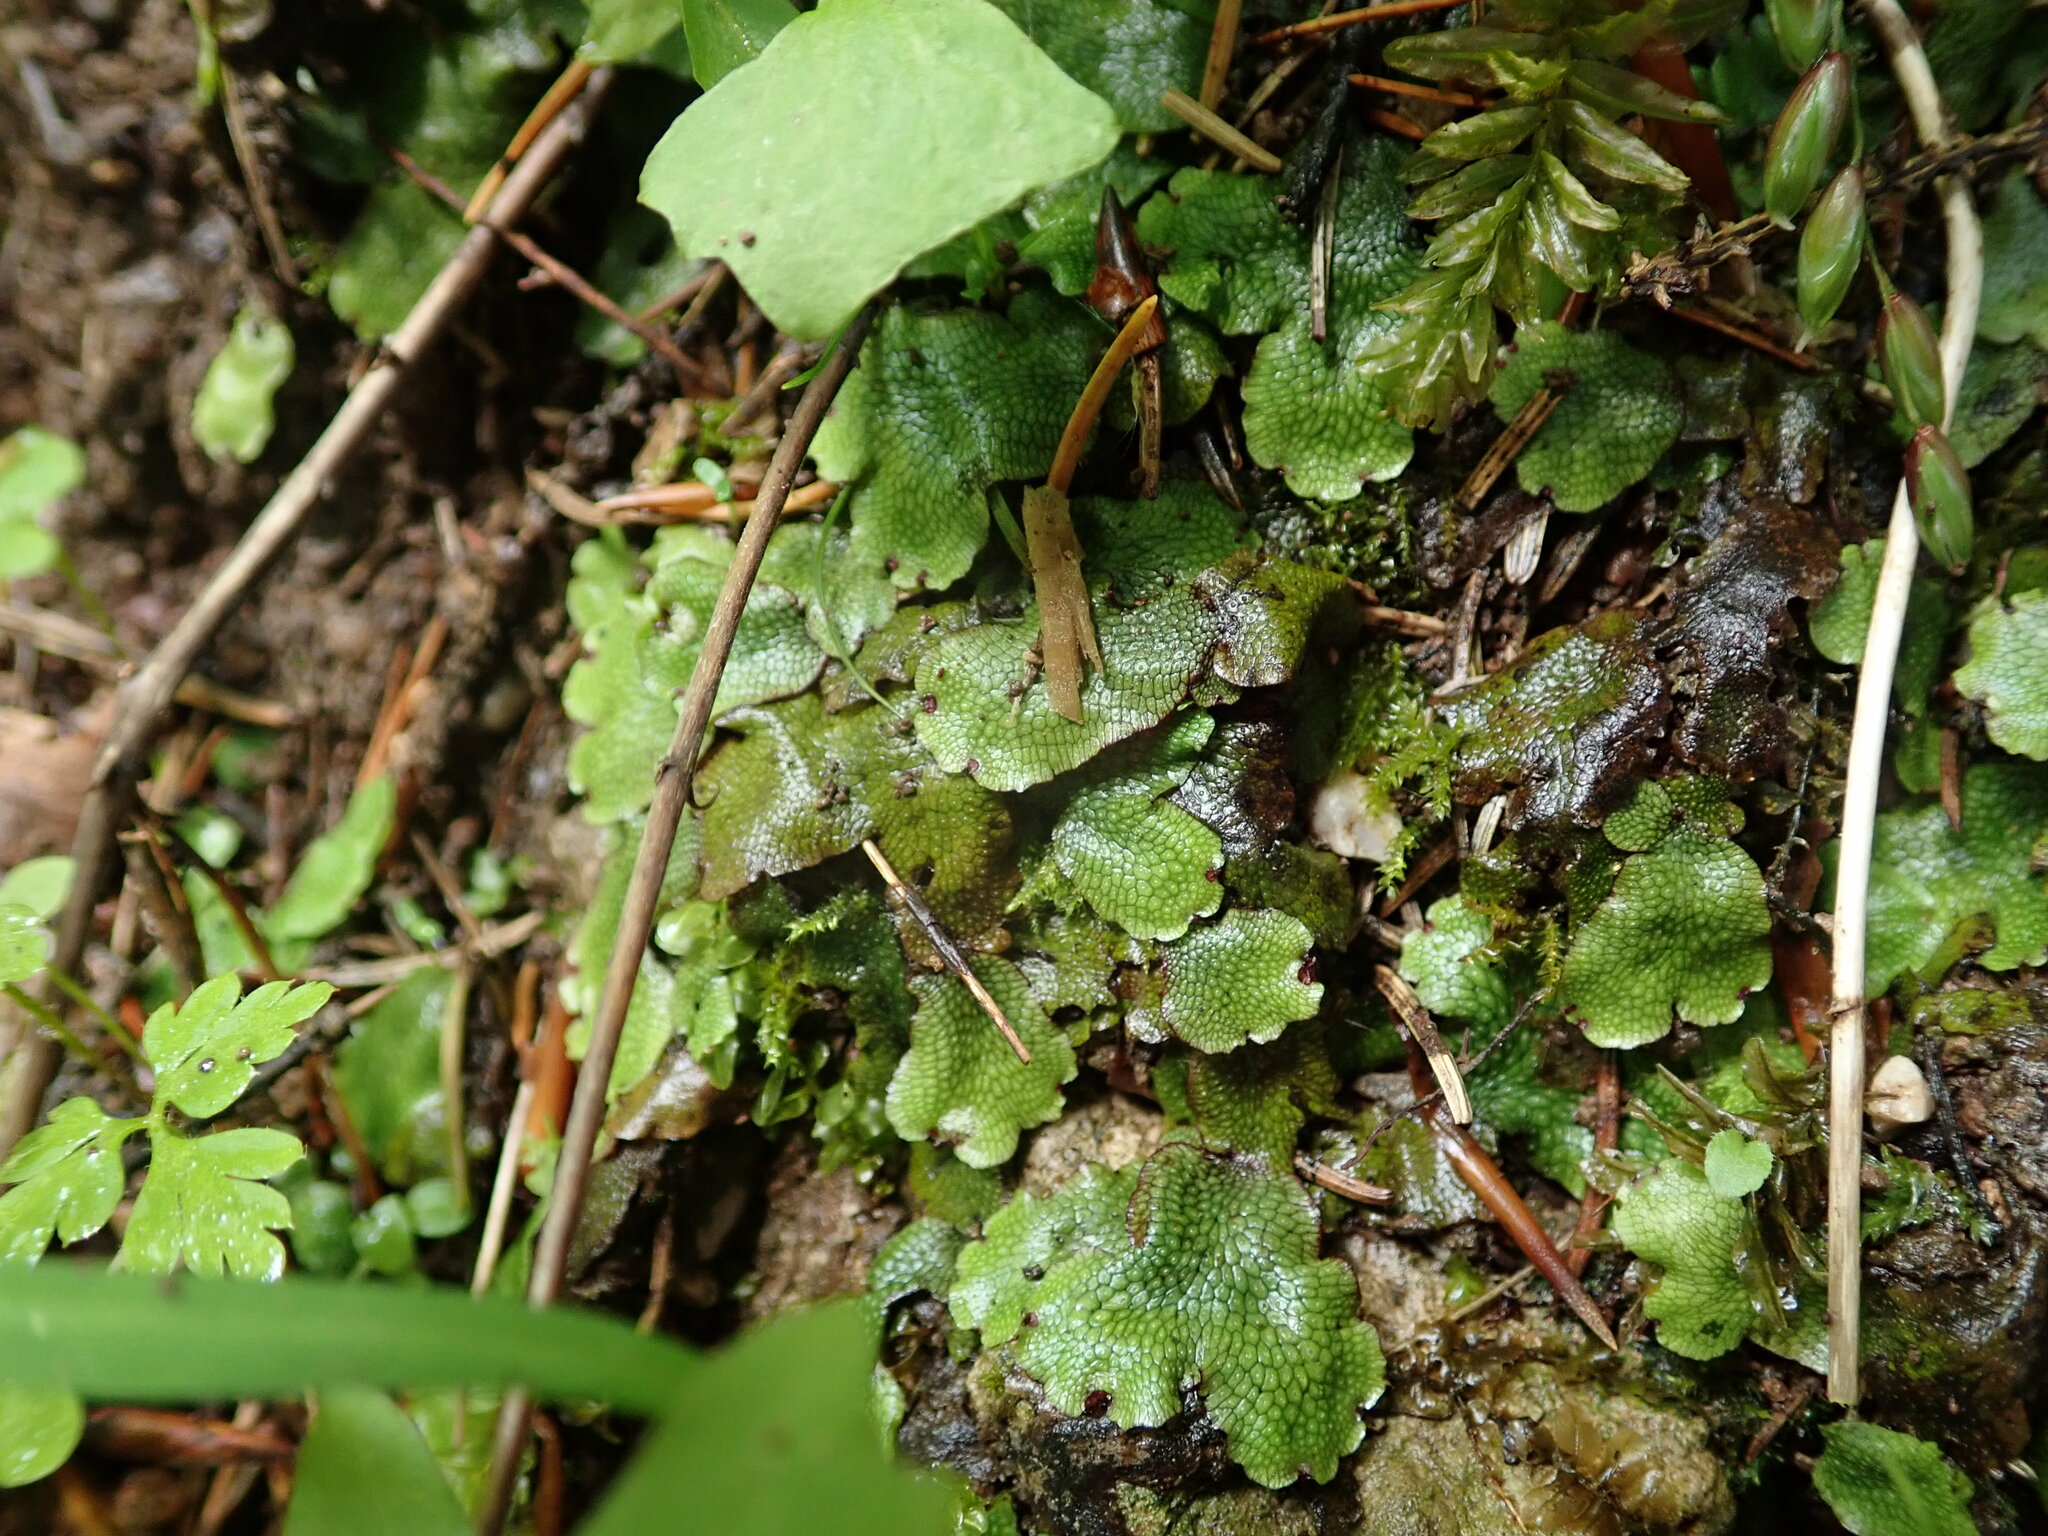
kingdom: Plantae
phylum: Marchantiophyta
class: Marchantiopsida
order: Marchantiales
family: Conocephalaceae
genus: Conocephalum
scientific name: Conocephalum salebrosum
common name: Cat-tongue liverwort
